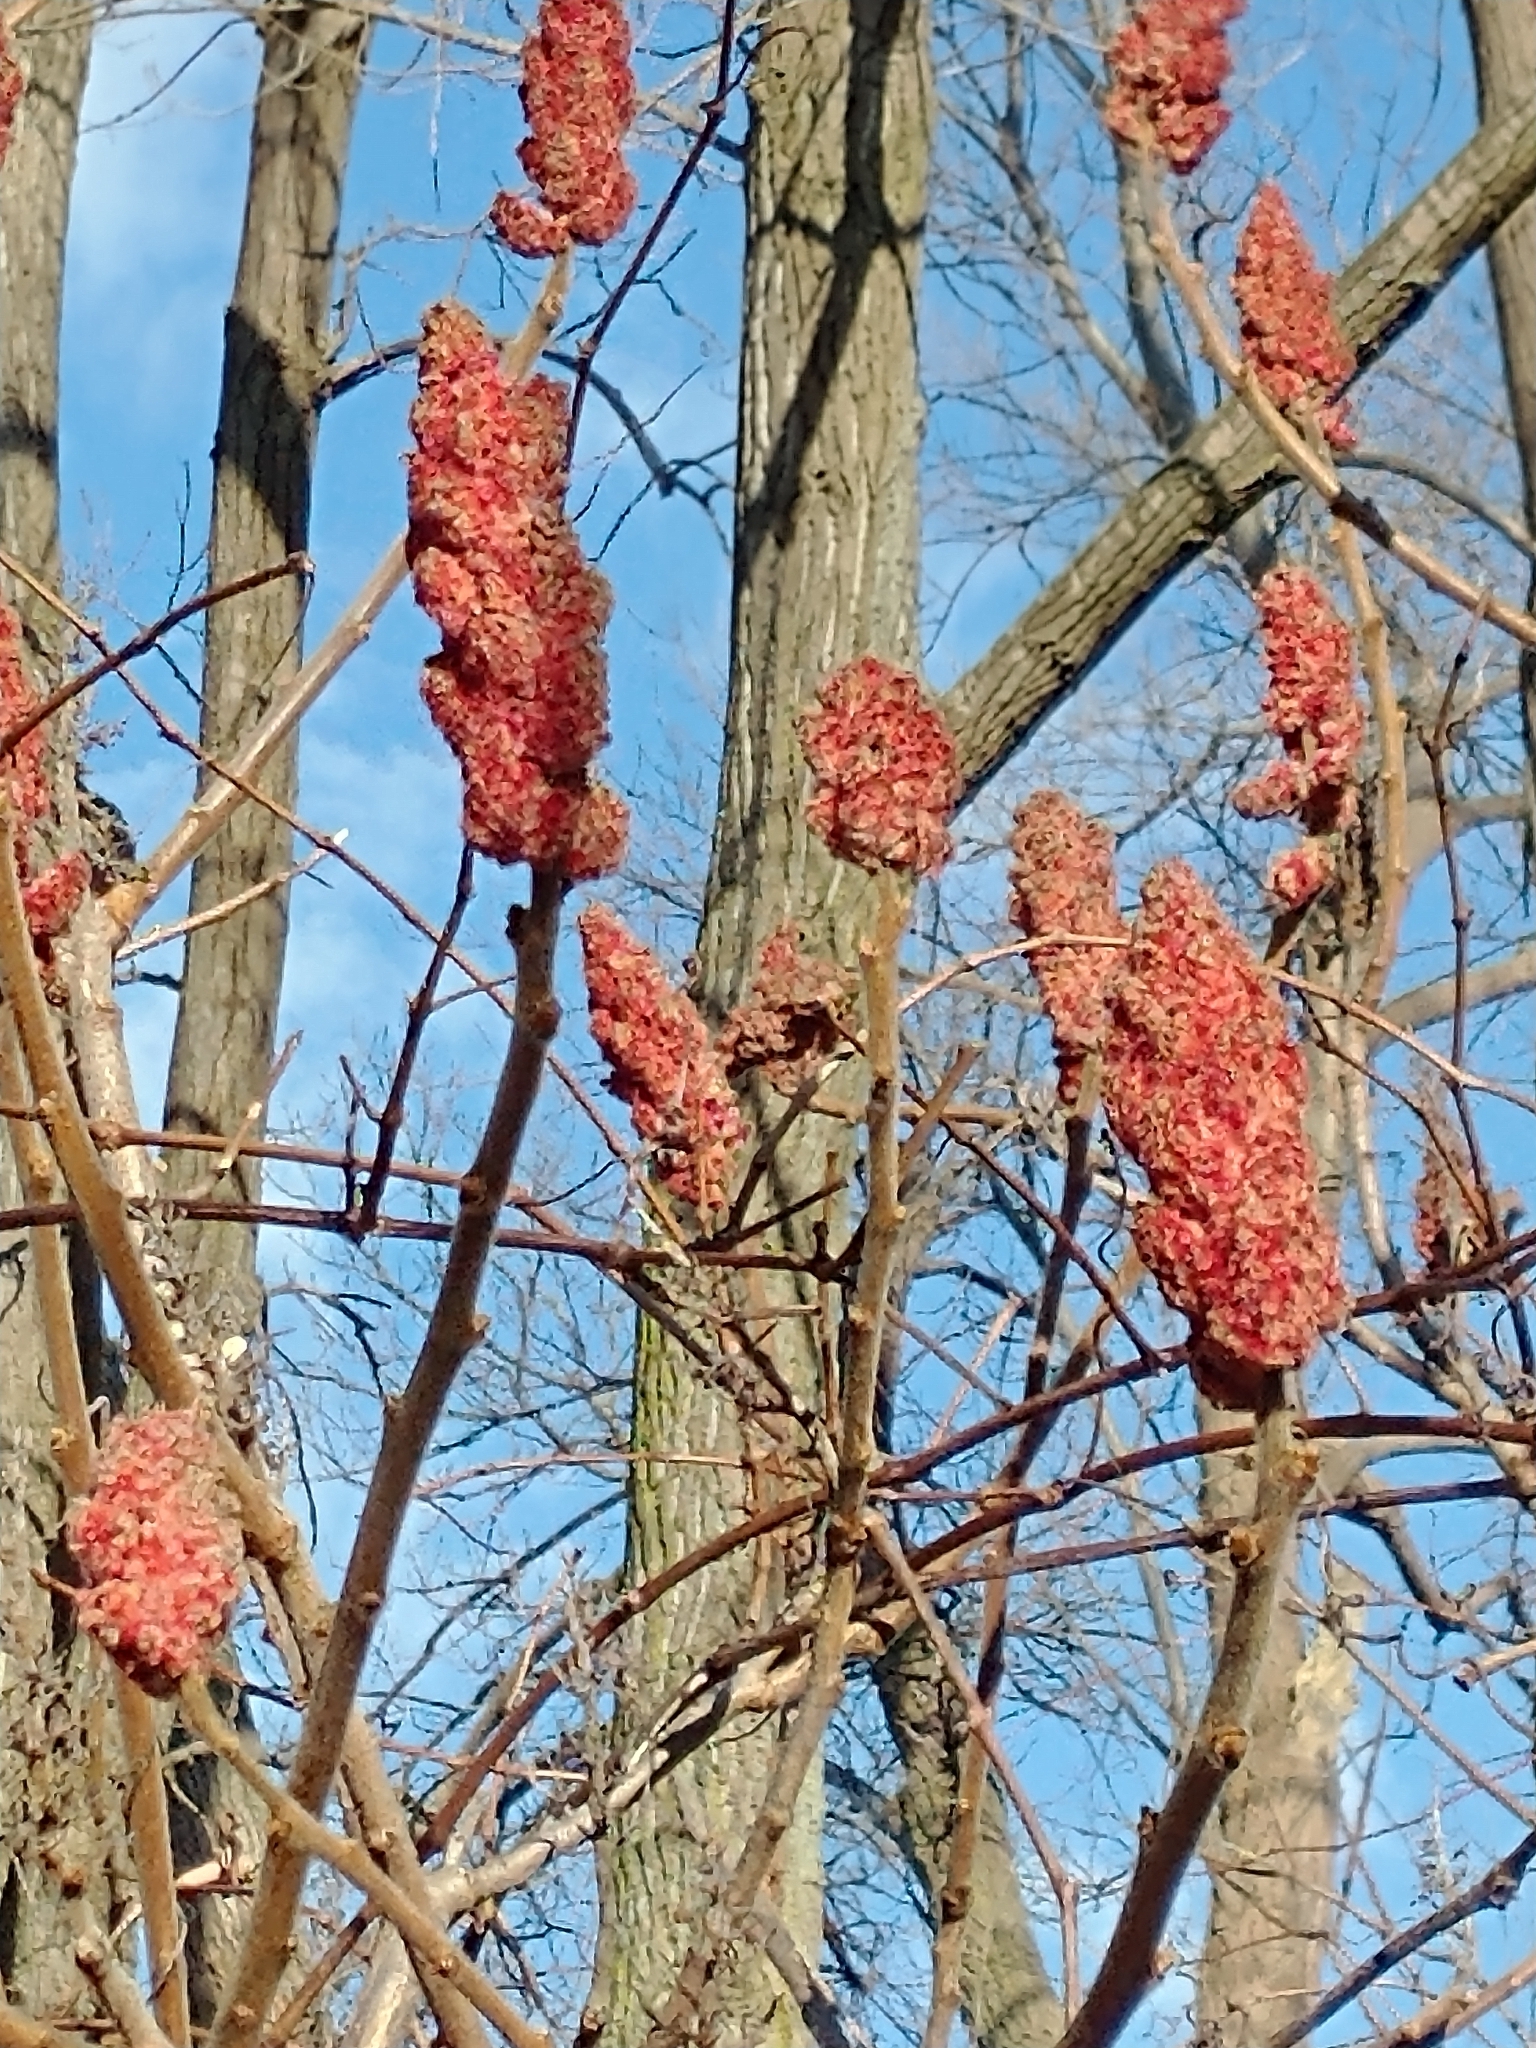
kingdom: Plantae
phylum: Tracheophyta
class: Magnoliopsida
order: Sapindales
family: Anacardiaceae
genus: Rhus
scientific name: Rhus typhina
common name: Staghorn sumac
